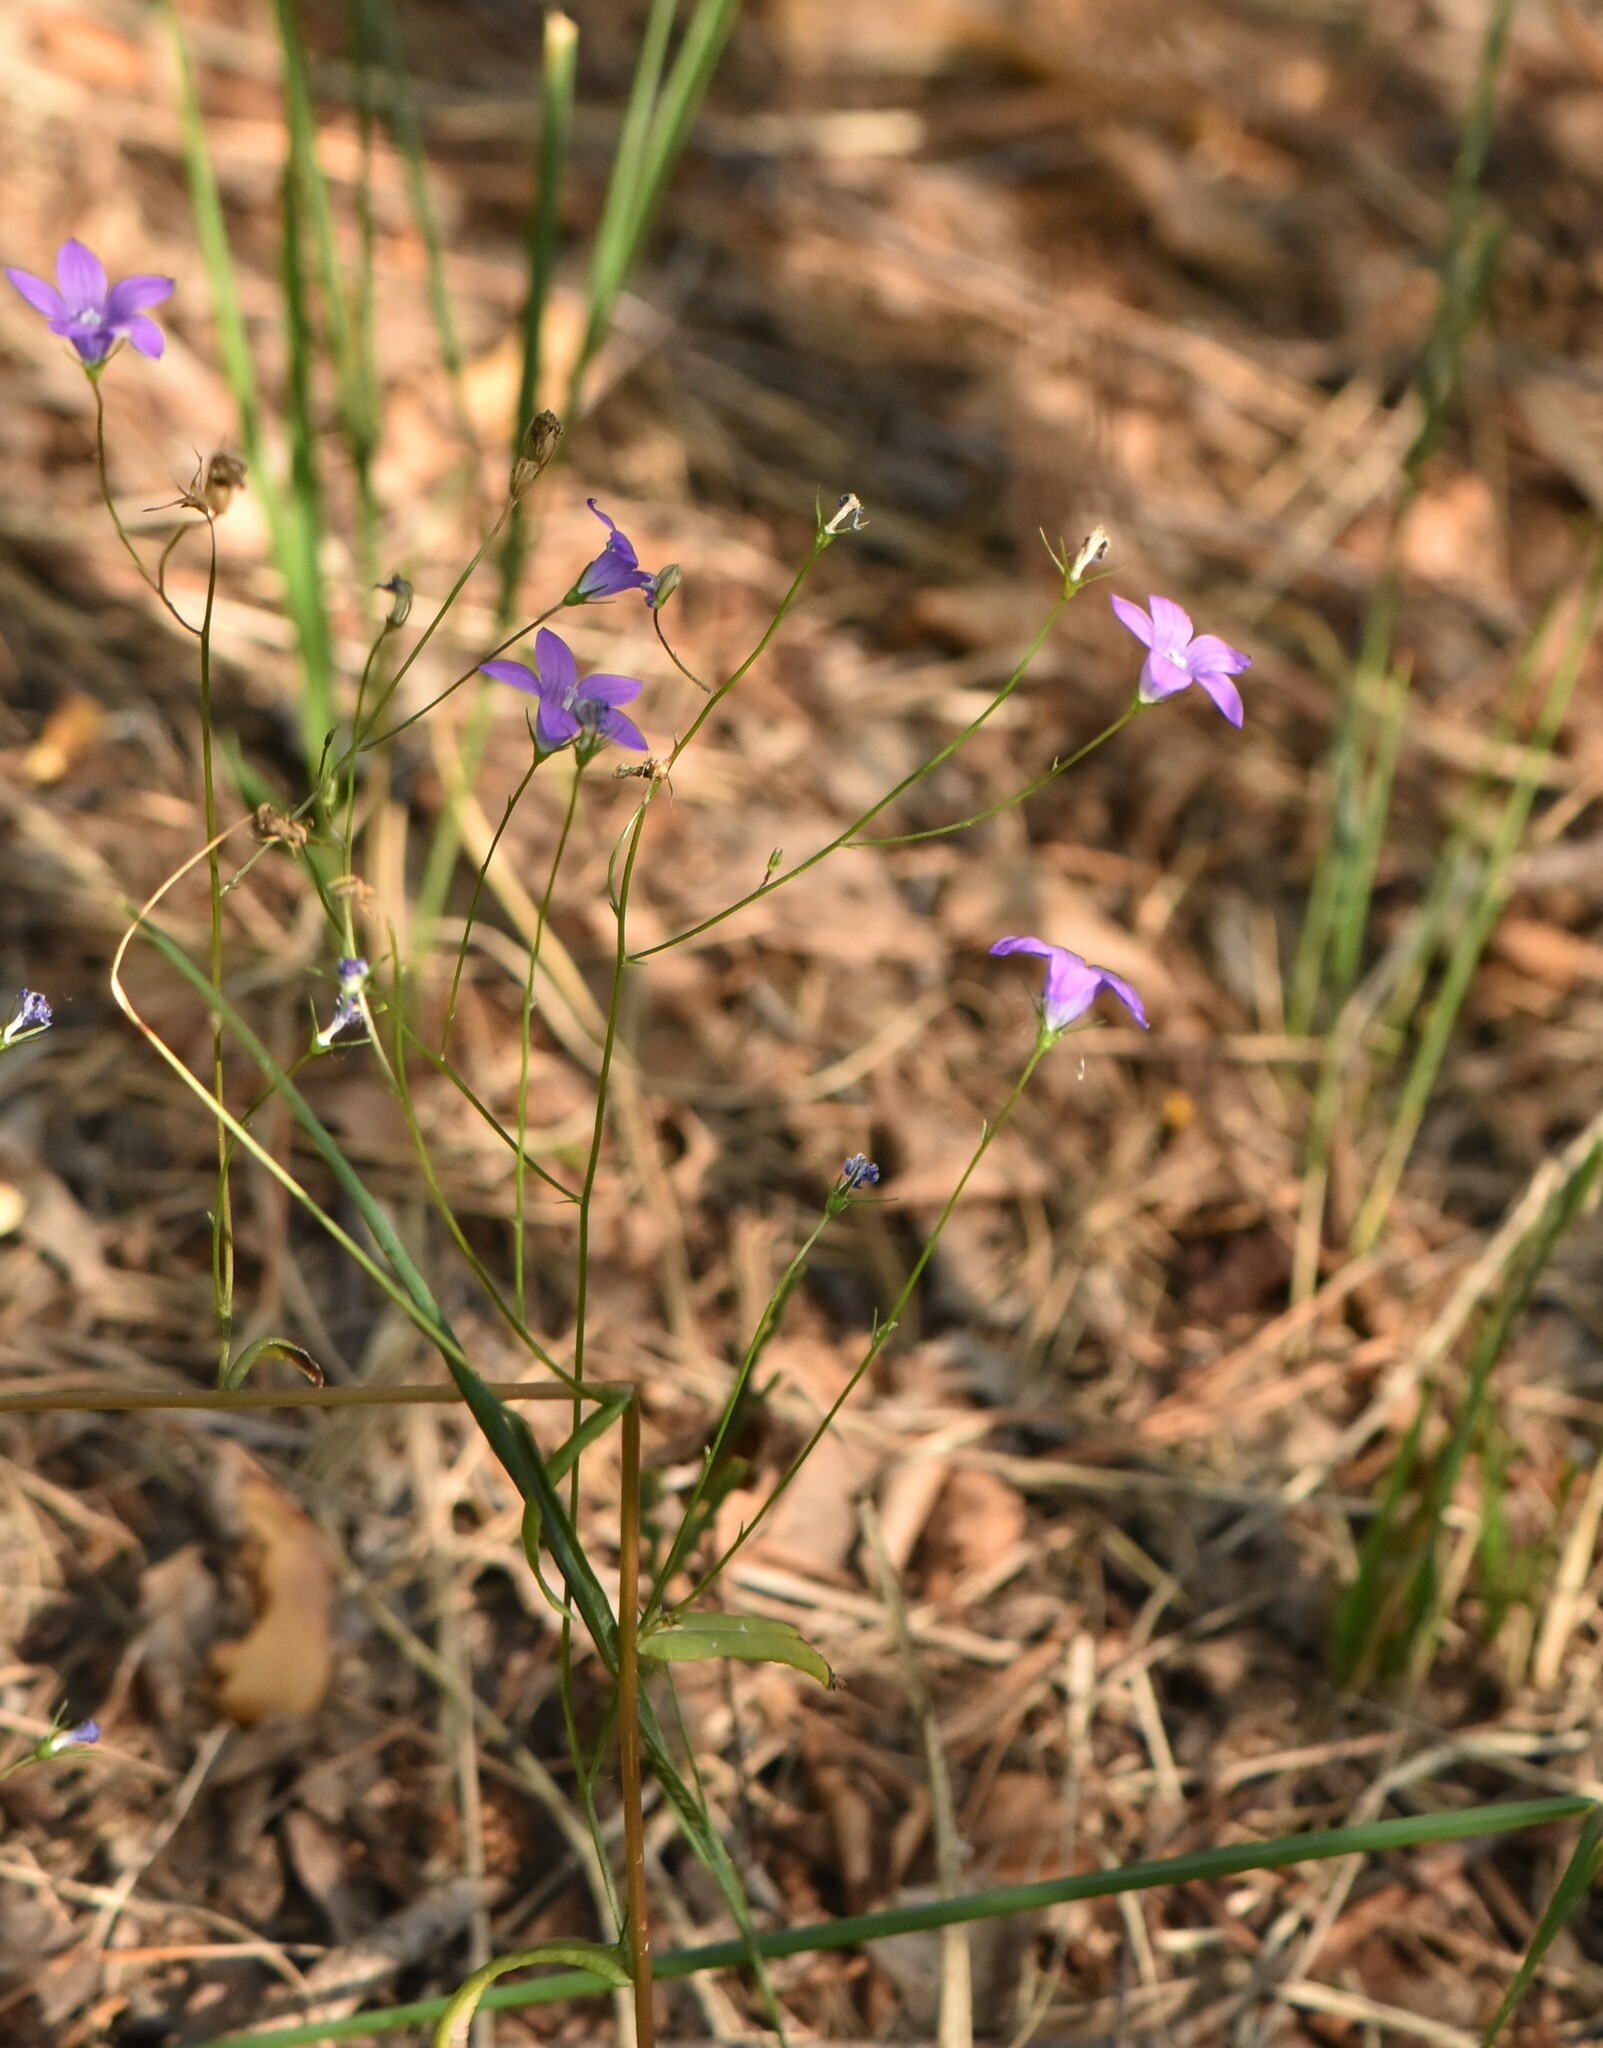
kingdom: Plantae
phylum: Tracheophyta
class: Magnoliopsida
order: Asterales
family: Campanulaceae
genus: Campanula
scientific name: Campanula patula
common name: Spreading bellflower
